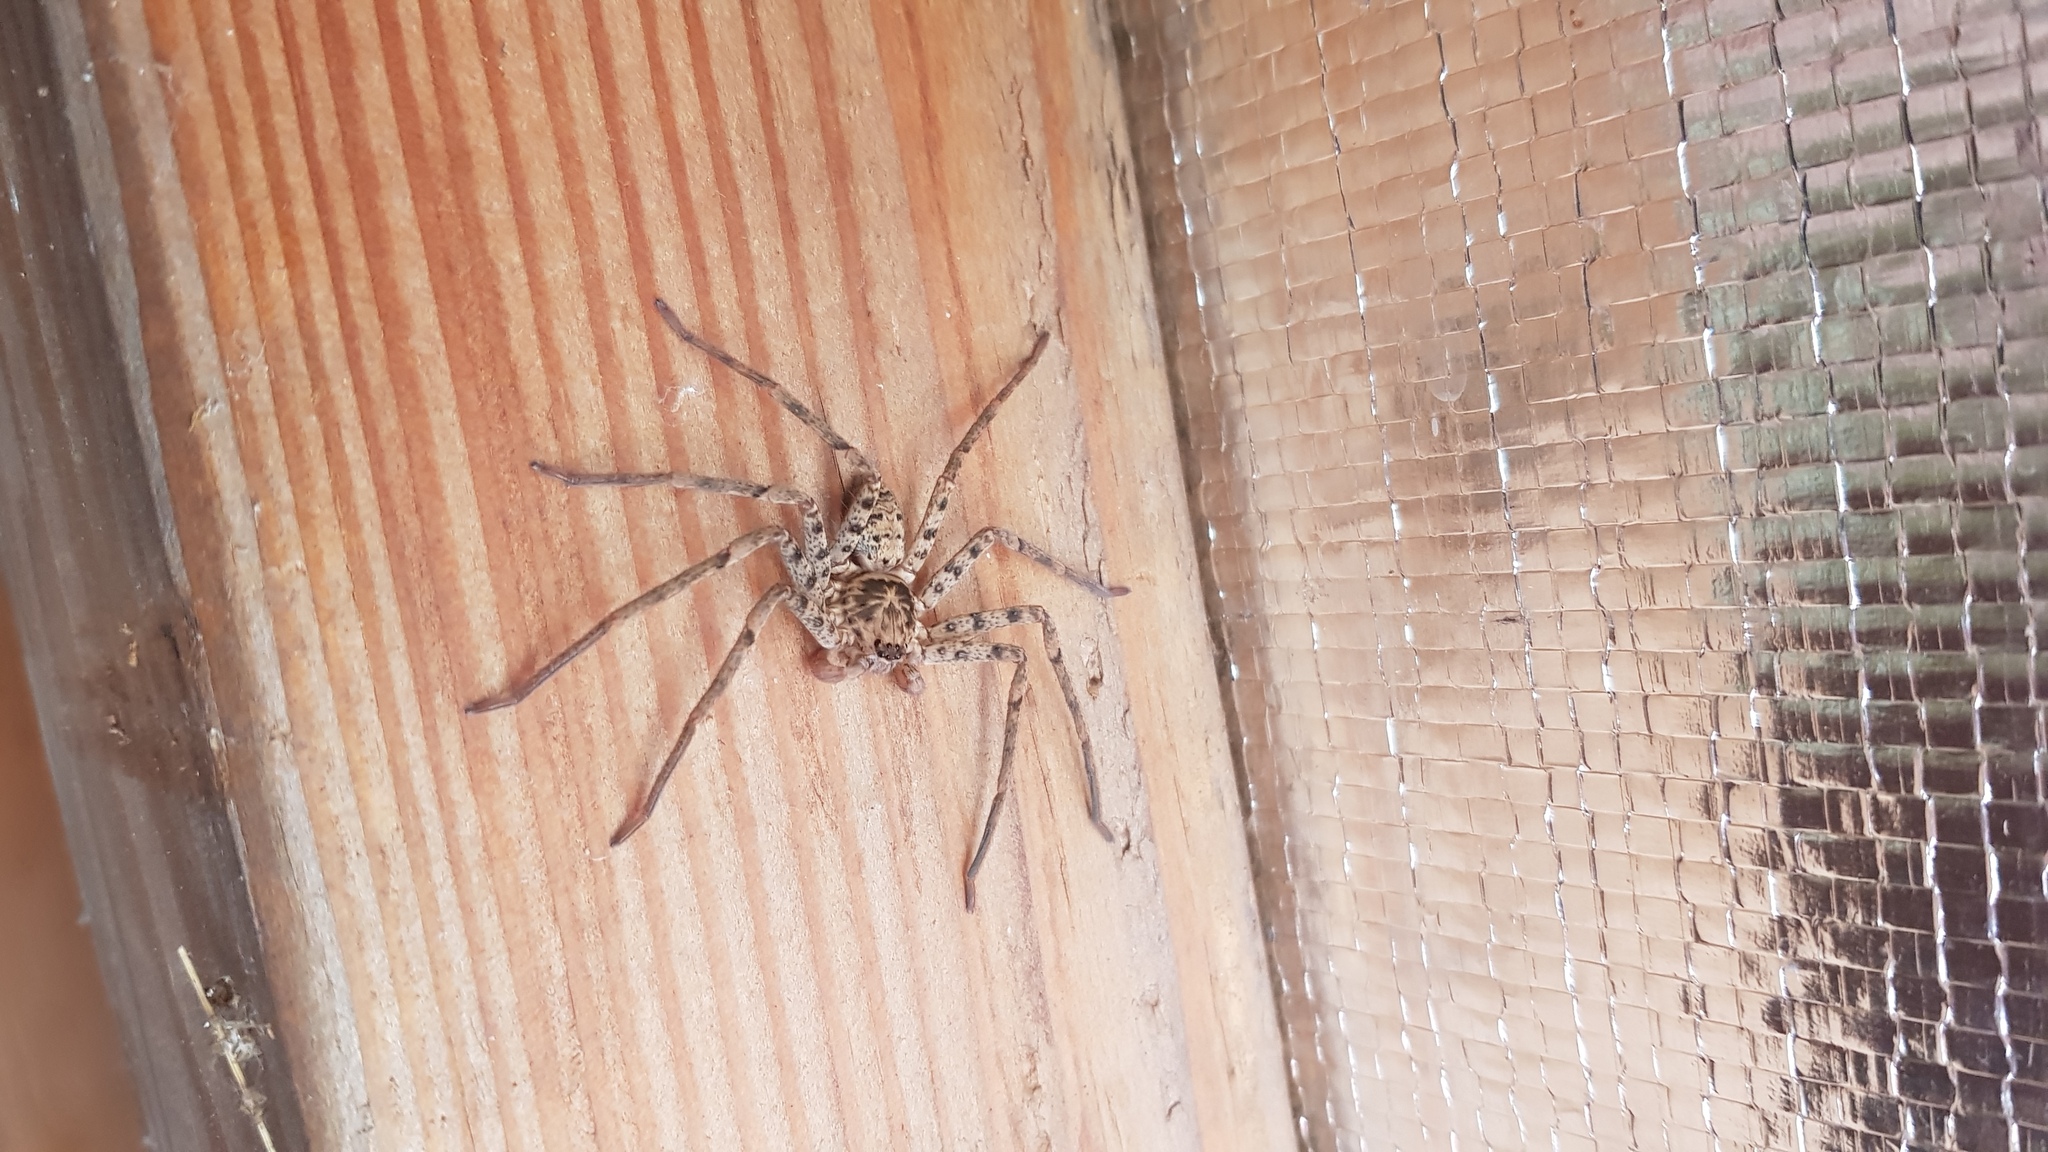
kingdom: Animalia
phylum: Arthropoda
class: Arachnida
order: Araneae
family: Sparassidae
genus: Heteropoda
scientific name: Heteropoda longipes
